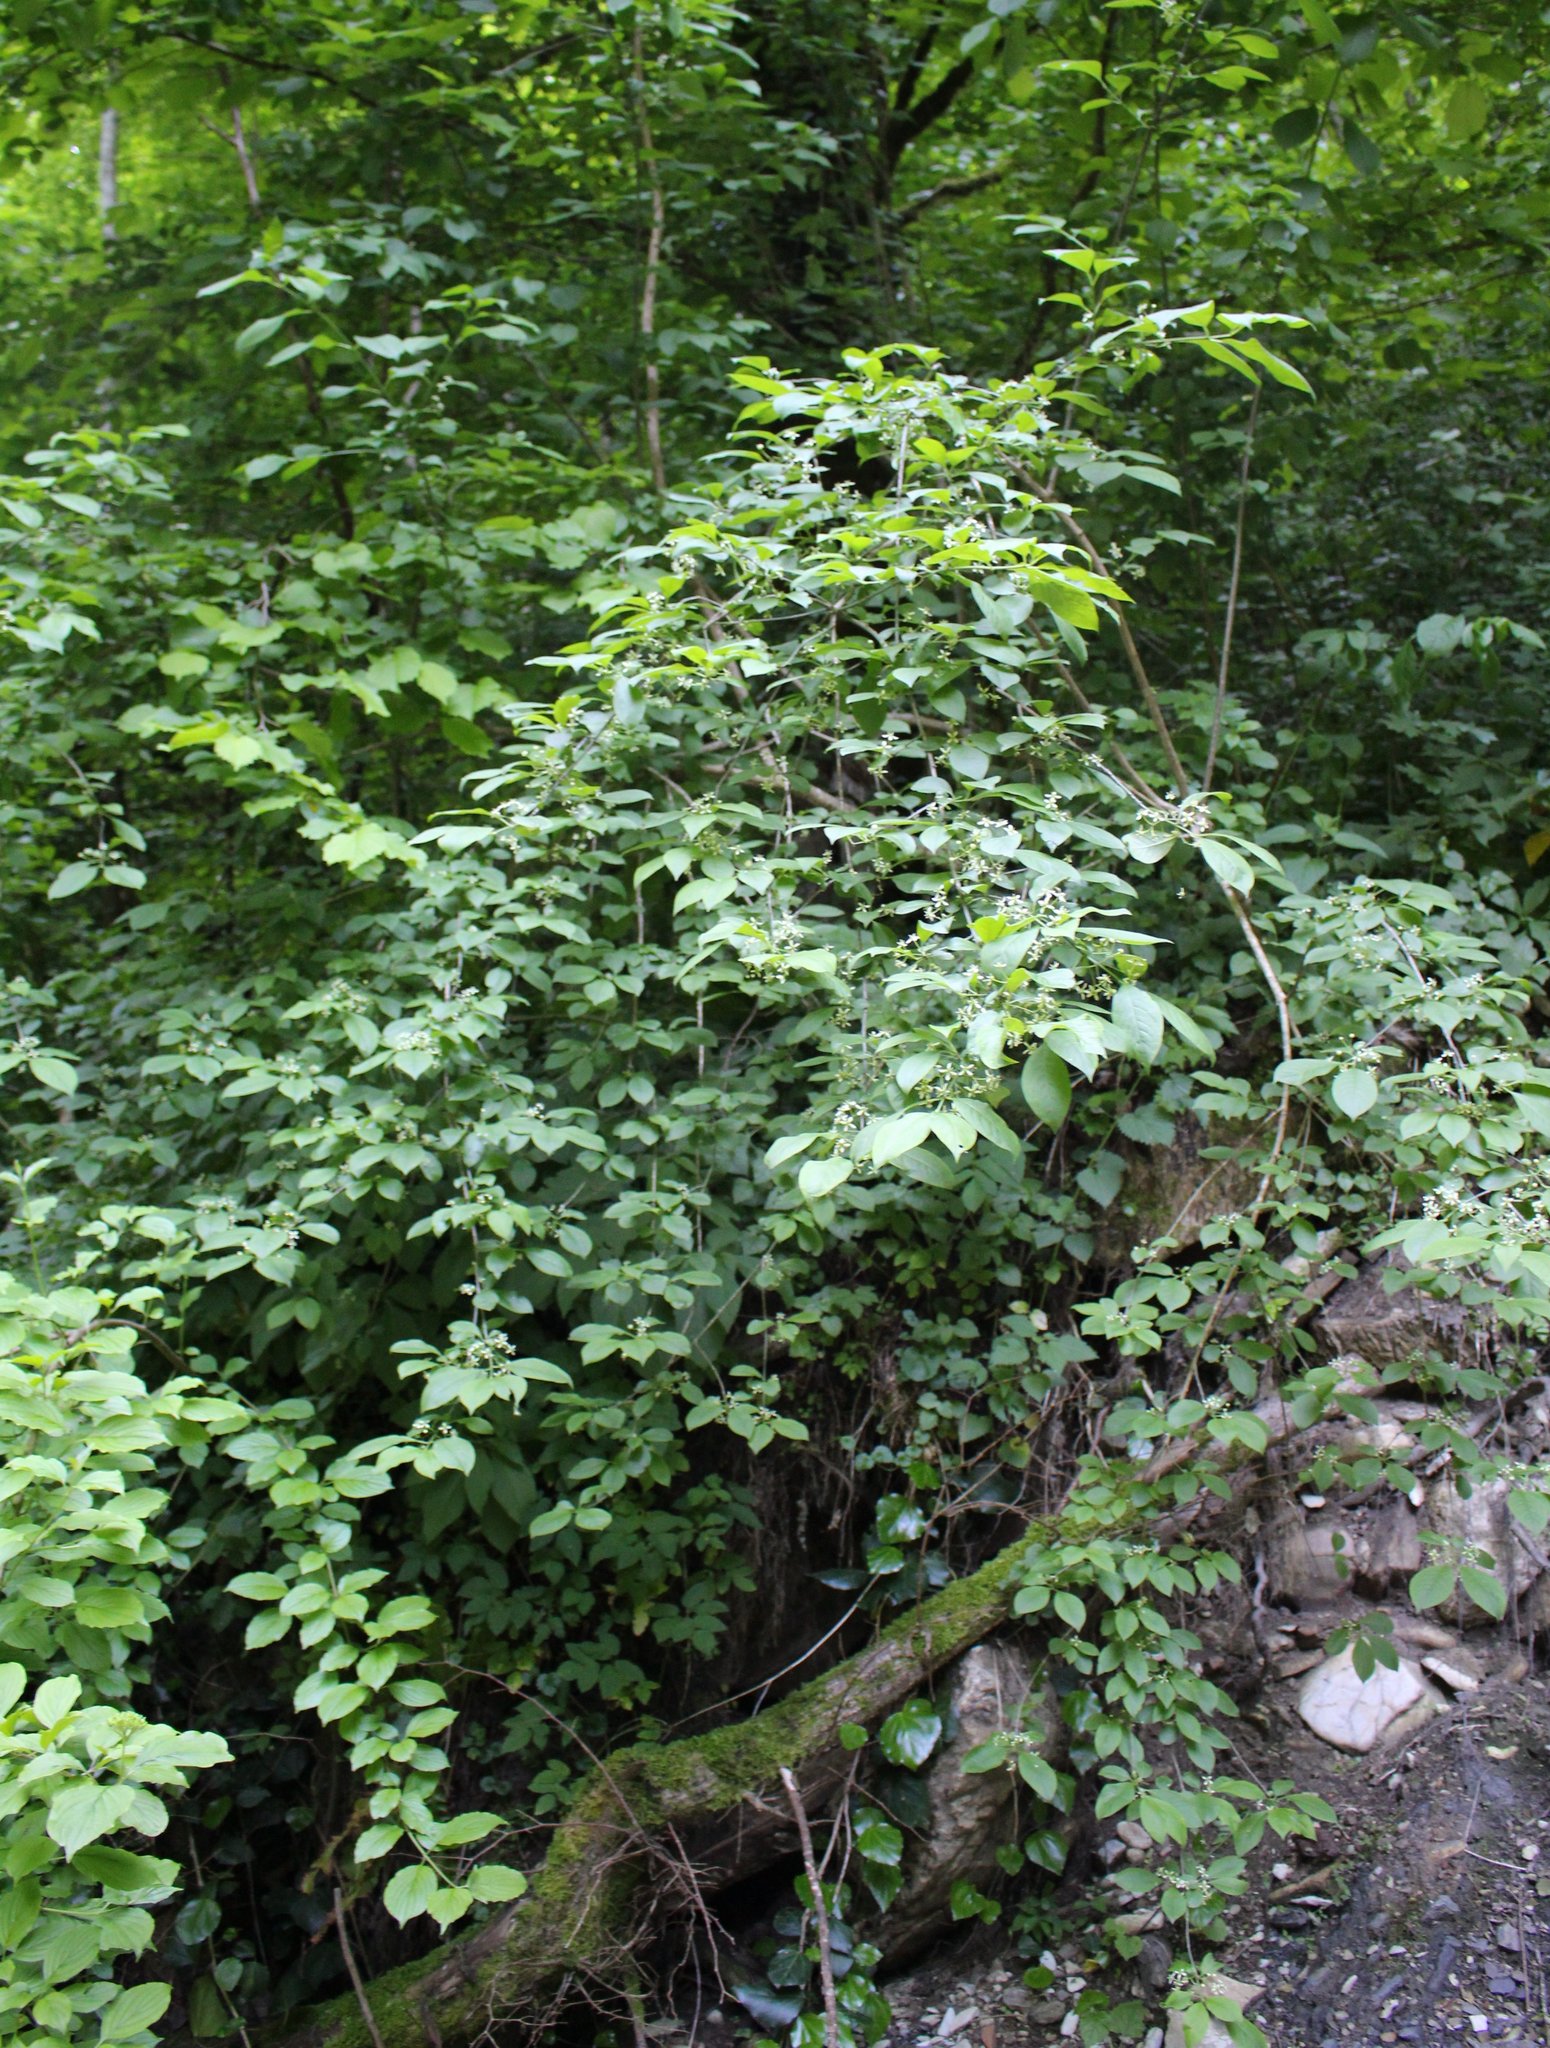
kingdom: Plantae
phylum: Tracheophyta
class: Magnoliopsida
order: Celastrales
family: Celastraceae
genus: Euonymus
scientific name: Euonymus europaeus
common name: Spindle
